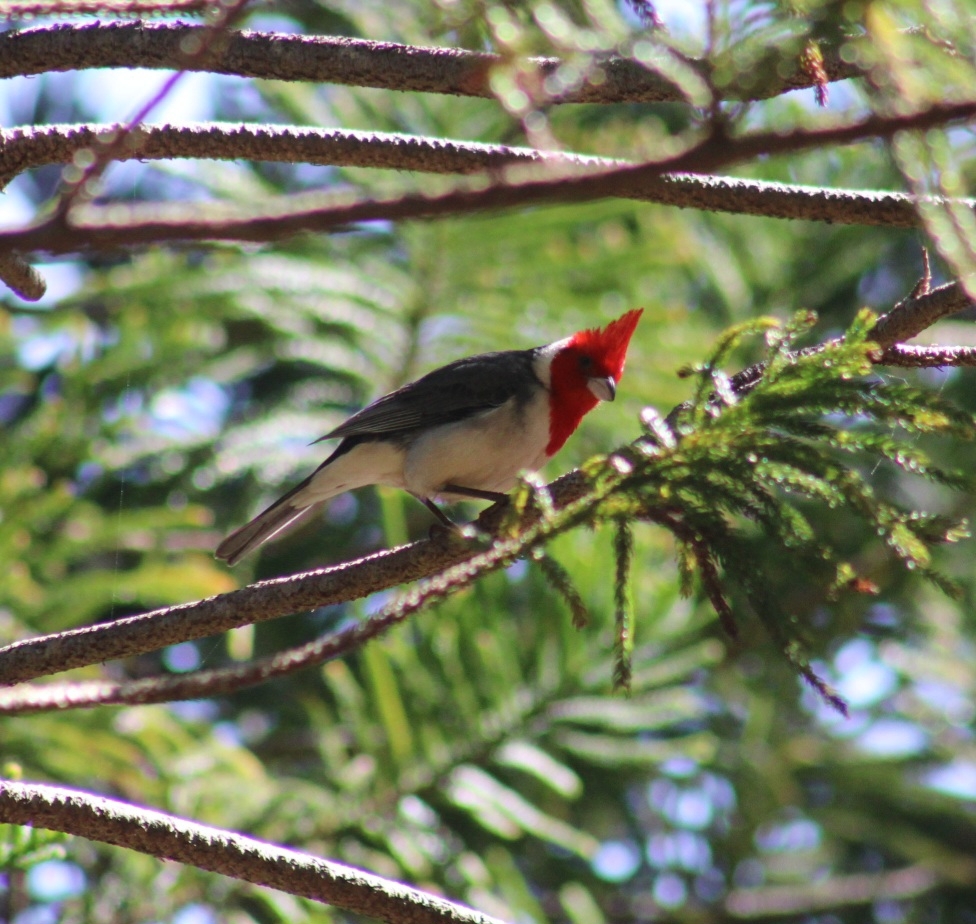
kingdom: Animalia
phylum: Chordata
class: Aves
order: Passeriformes
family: Thraupidae
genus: Paroaria
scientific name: Paroaria coronata
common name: Red-crested cardinal
